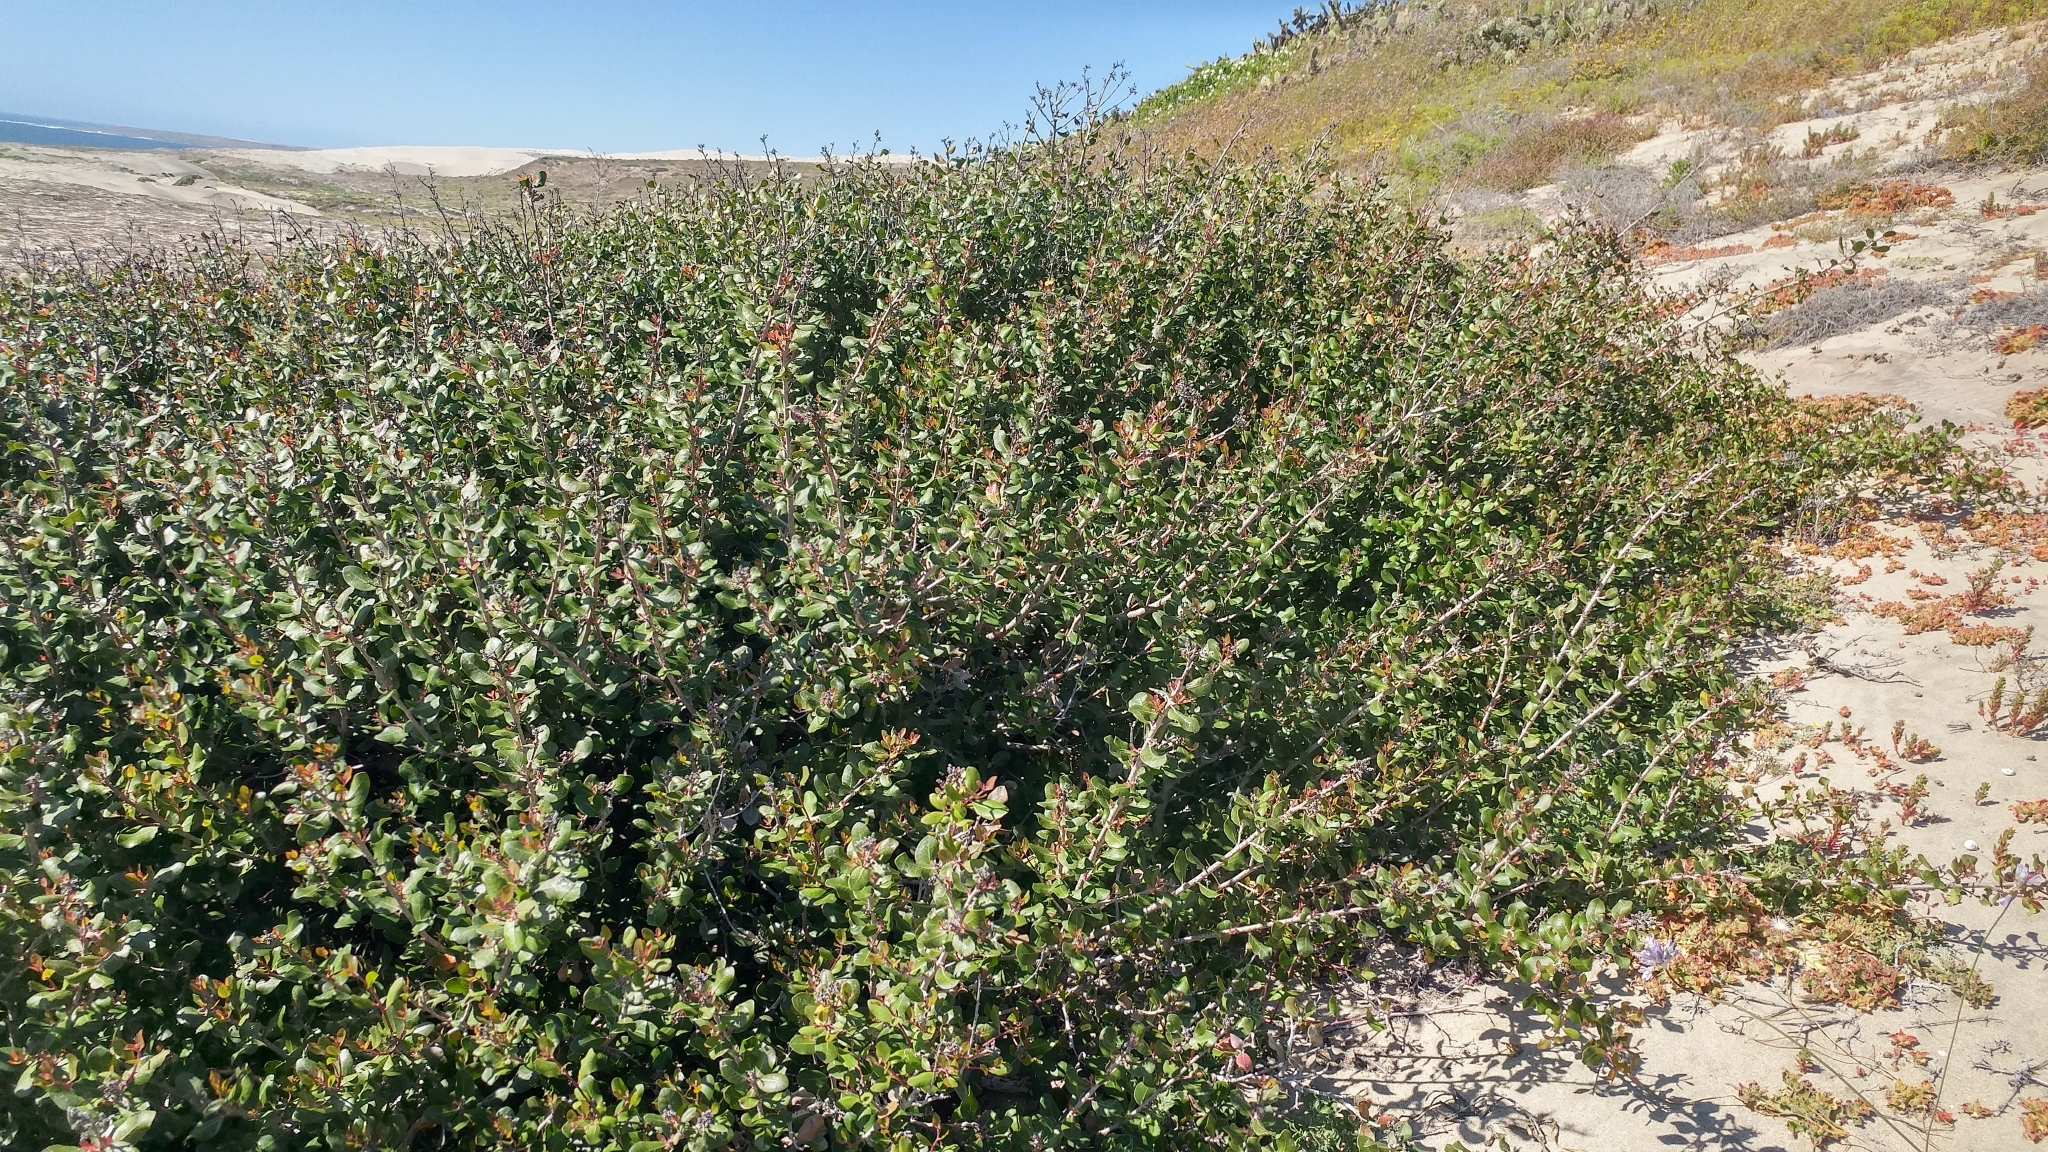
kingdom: Plantae
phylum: Tracheophyta
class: Magnoliopsida
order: Sapindales
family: Anacardiaceae
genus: Rhus
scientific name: Rhus integrifolia
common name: Lemonade sumac
